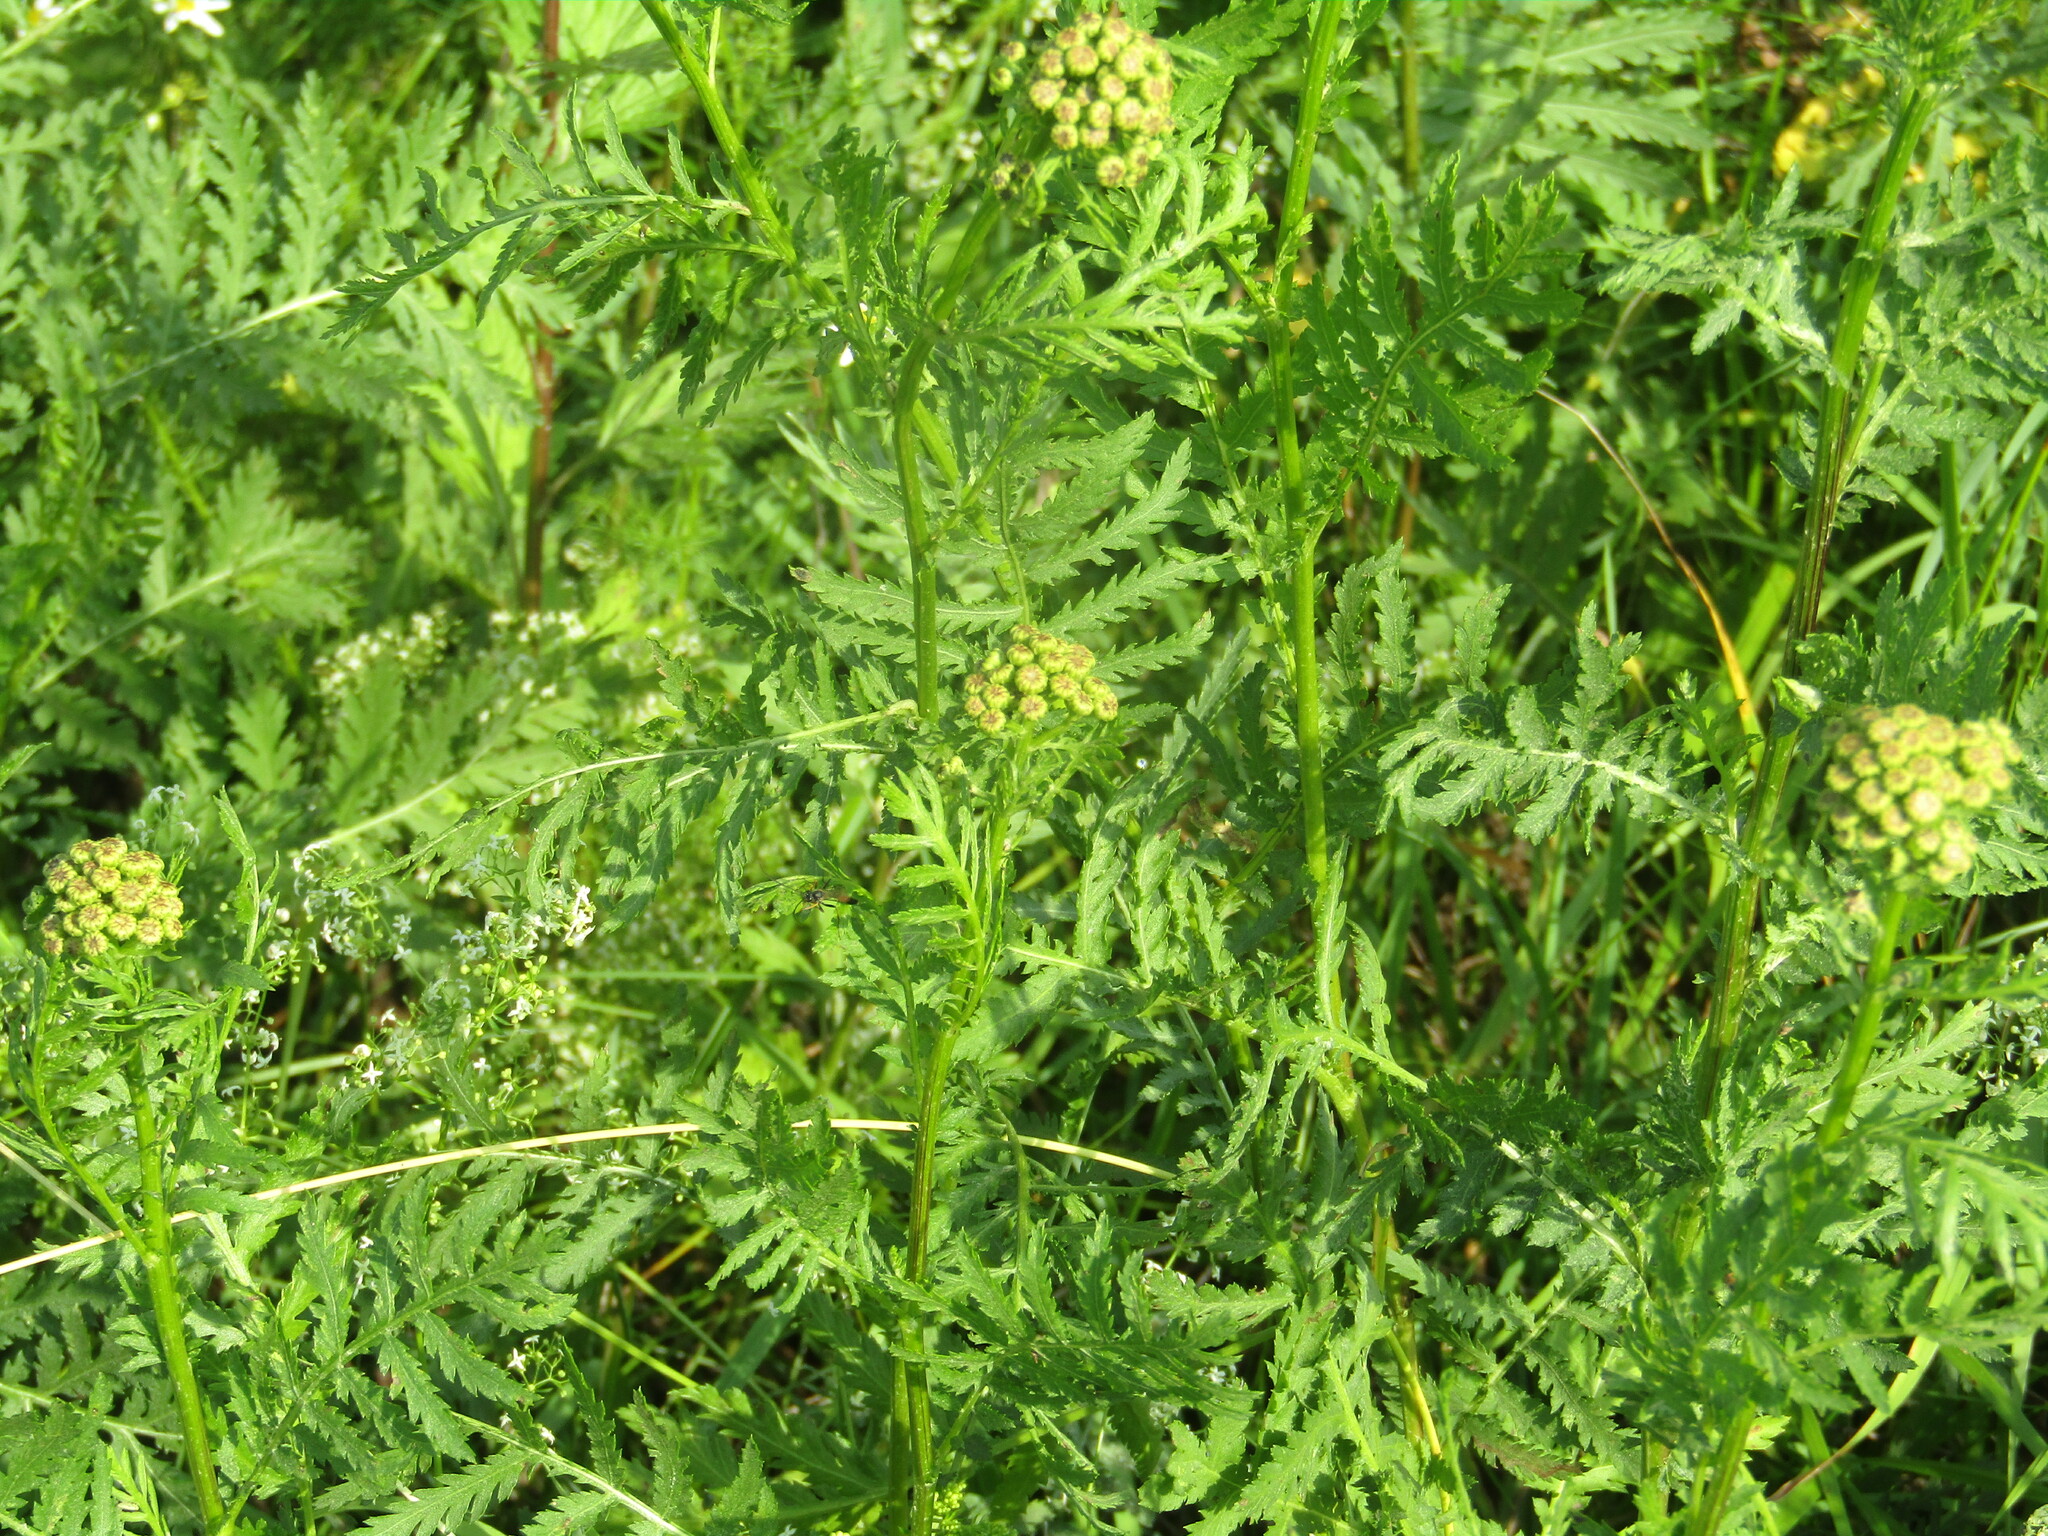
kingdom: Plantae
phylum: Tracheophyta
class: Magnoliopsida
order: Asterales
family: Asteraceae
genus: Tanacetum
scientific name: Tanacetum vulgare
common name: Common tansy
